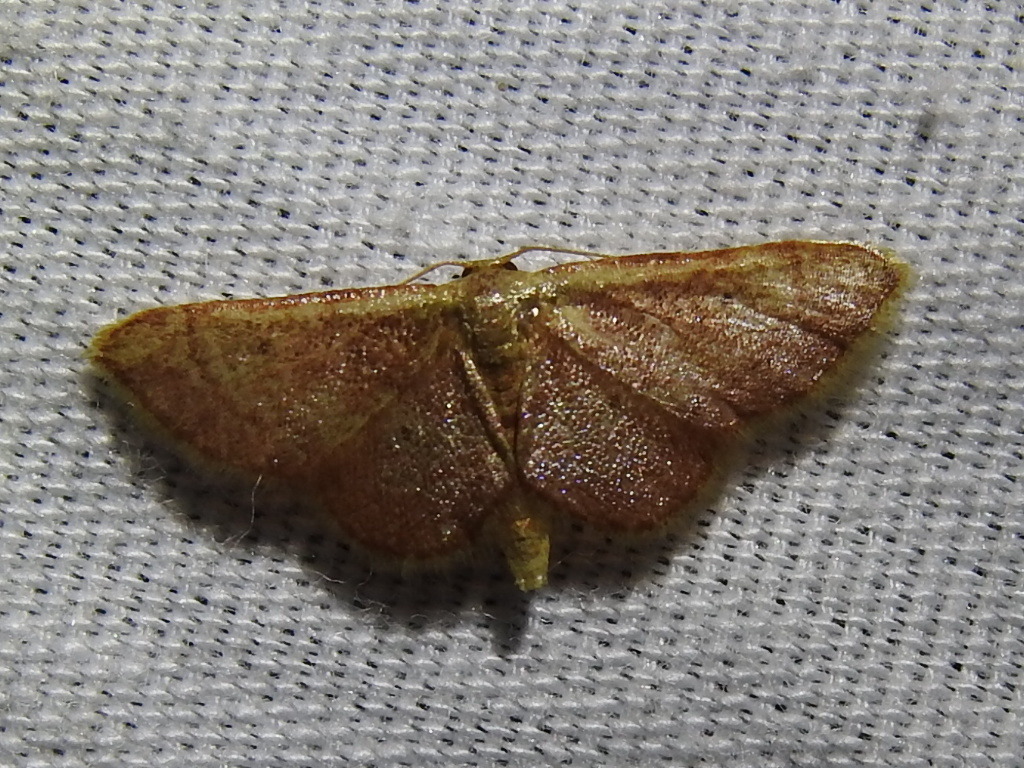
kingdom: Animalia
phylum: Arthropoda
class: Insecta
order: Lepidoptera
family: Geometridae
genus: Idaea
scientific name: Idaea demissaria
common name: Red-bordered wave
